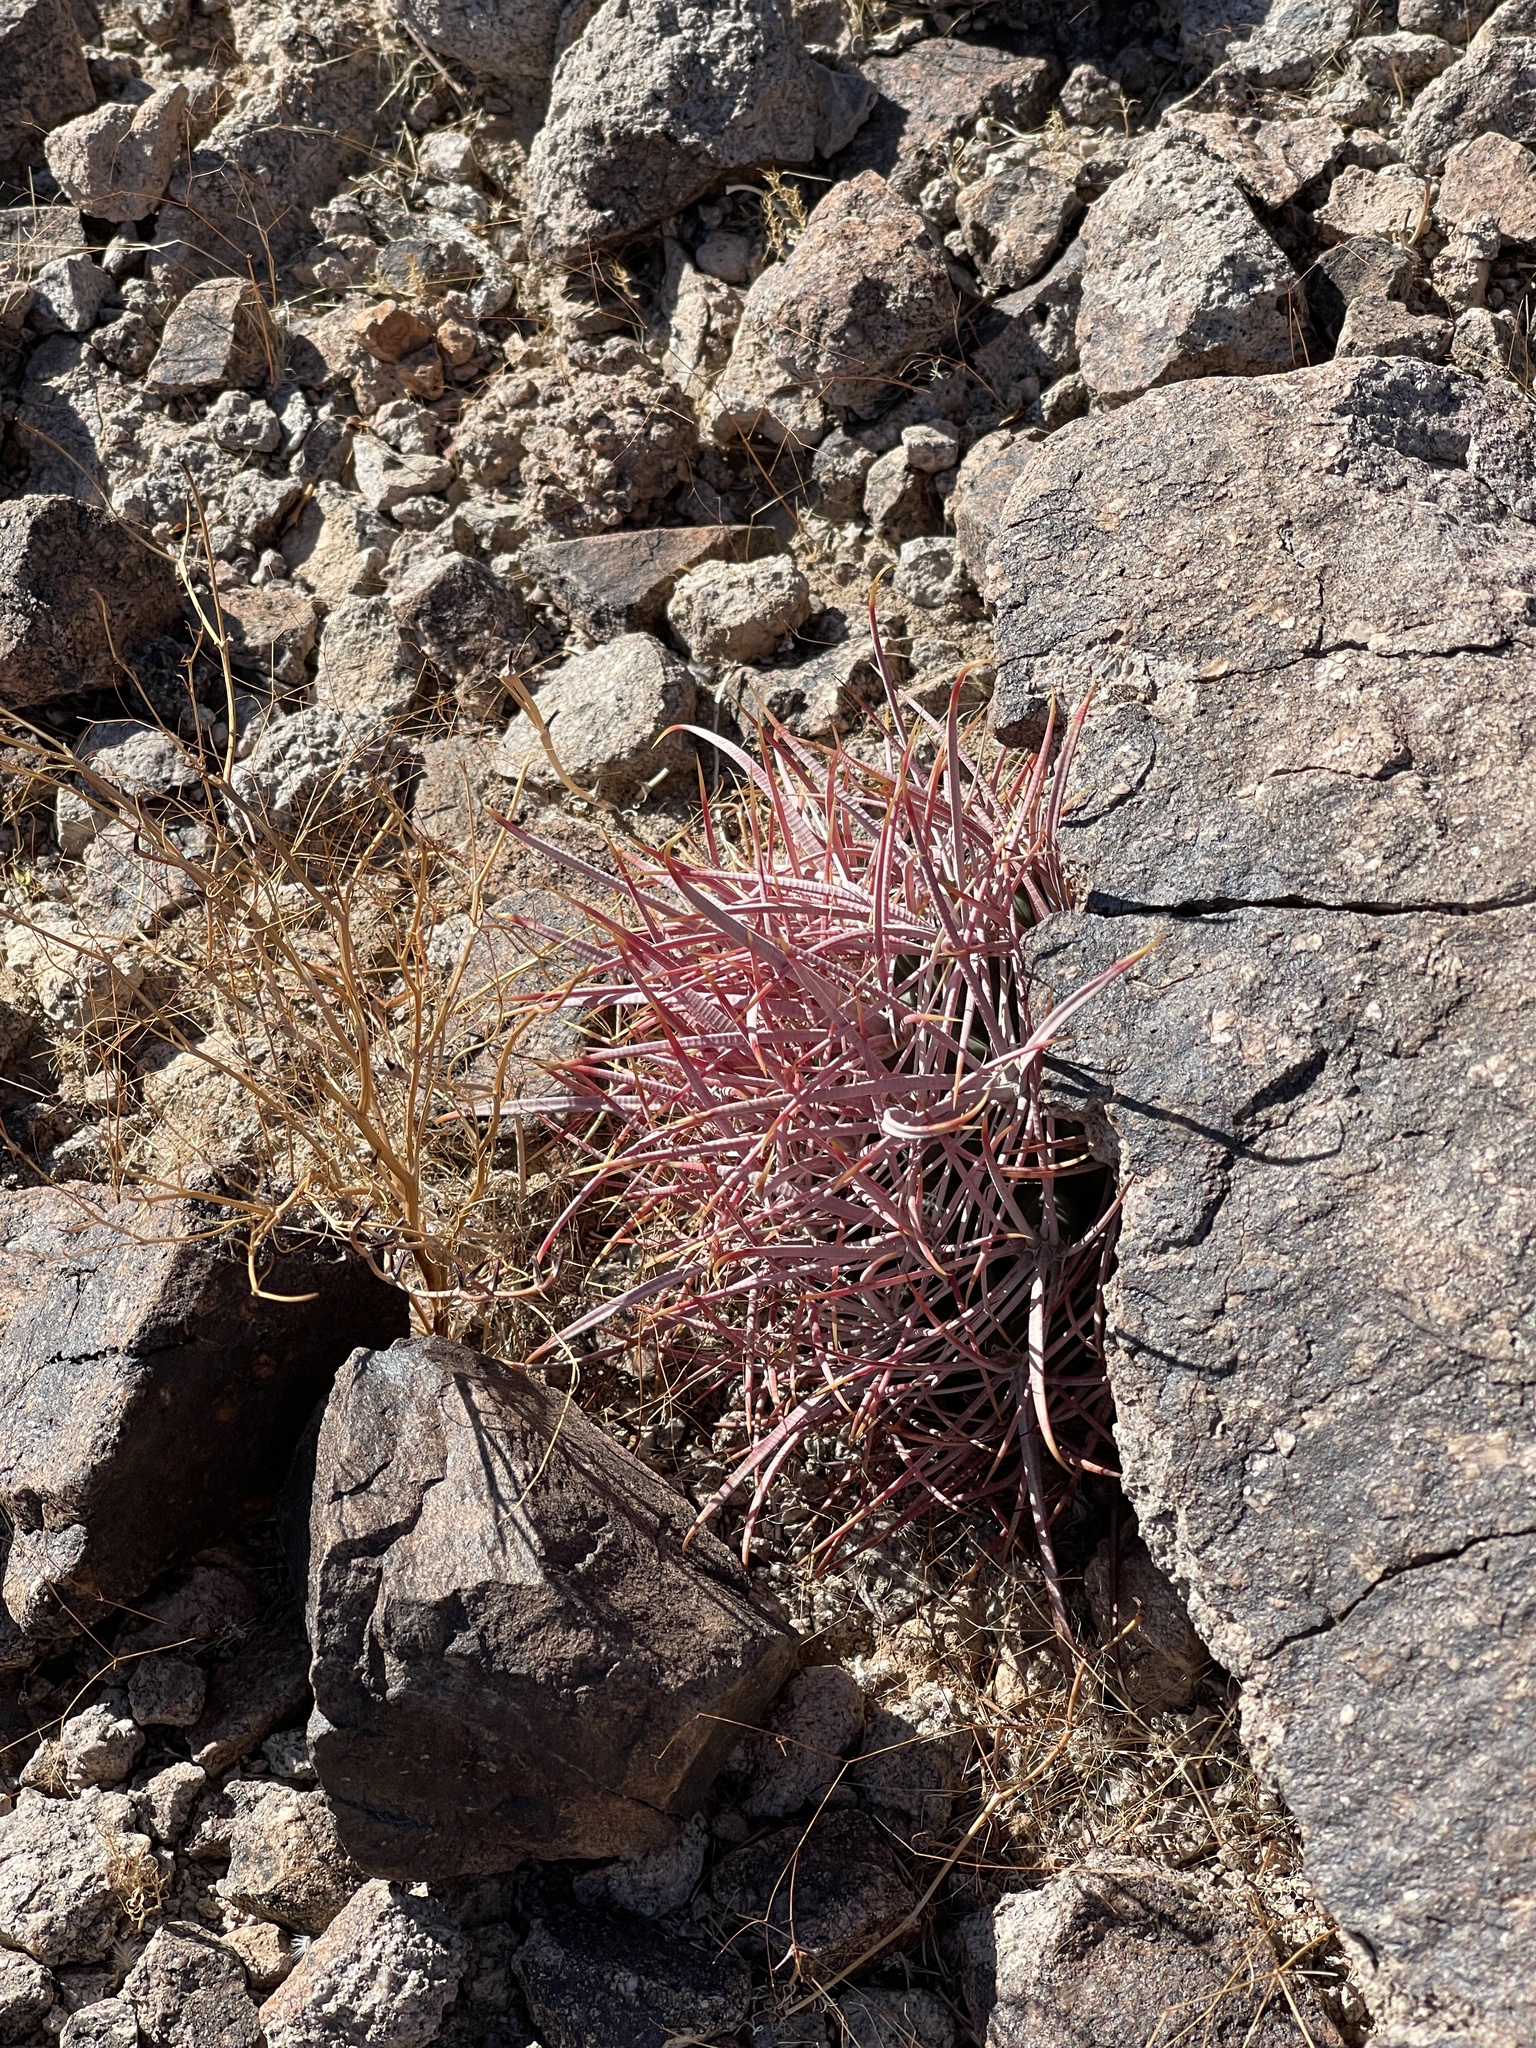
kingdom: Plantae
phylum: Tracheophyta
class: Magnoliopsida
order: Caryophyllales
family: Cactaceae
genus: Ferocactus
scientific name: Ferocactus cylindraceus
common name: California barrel cactus
